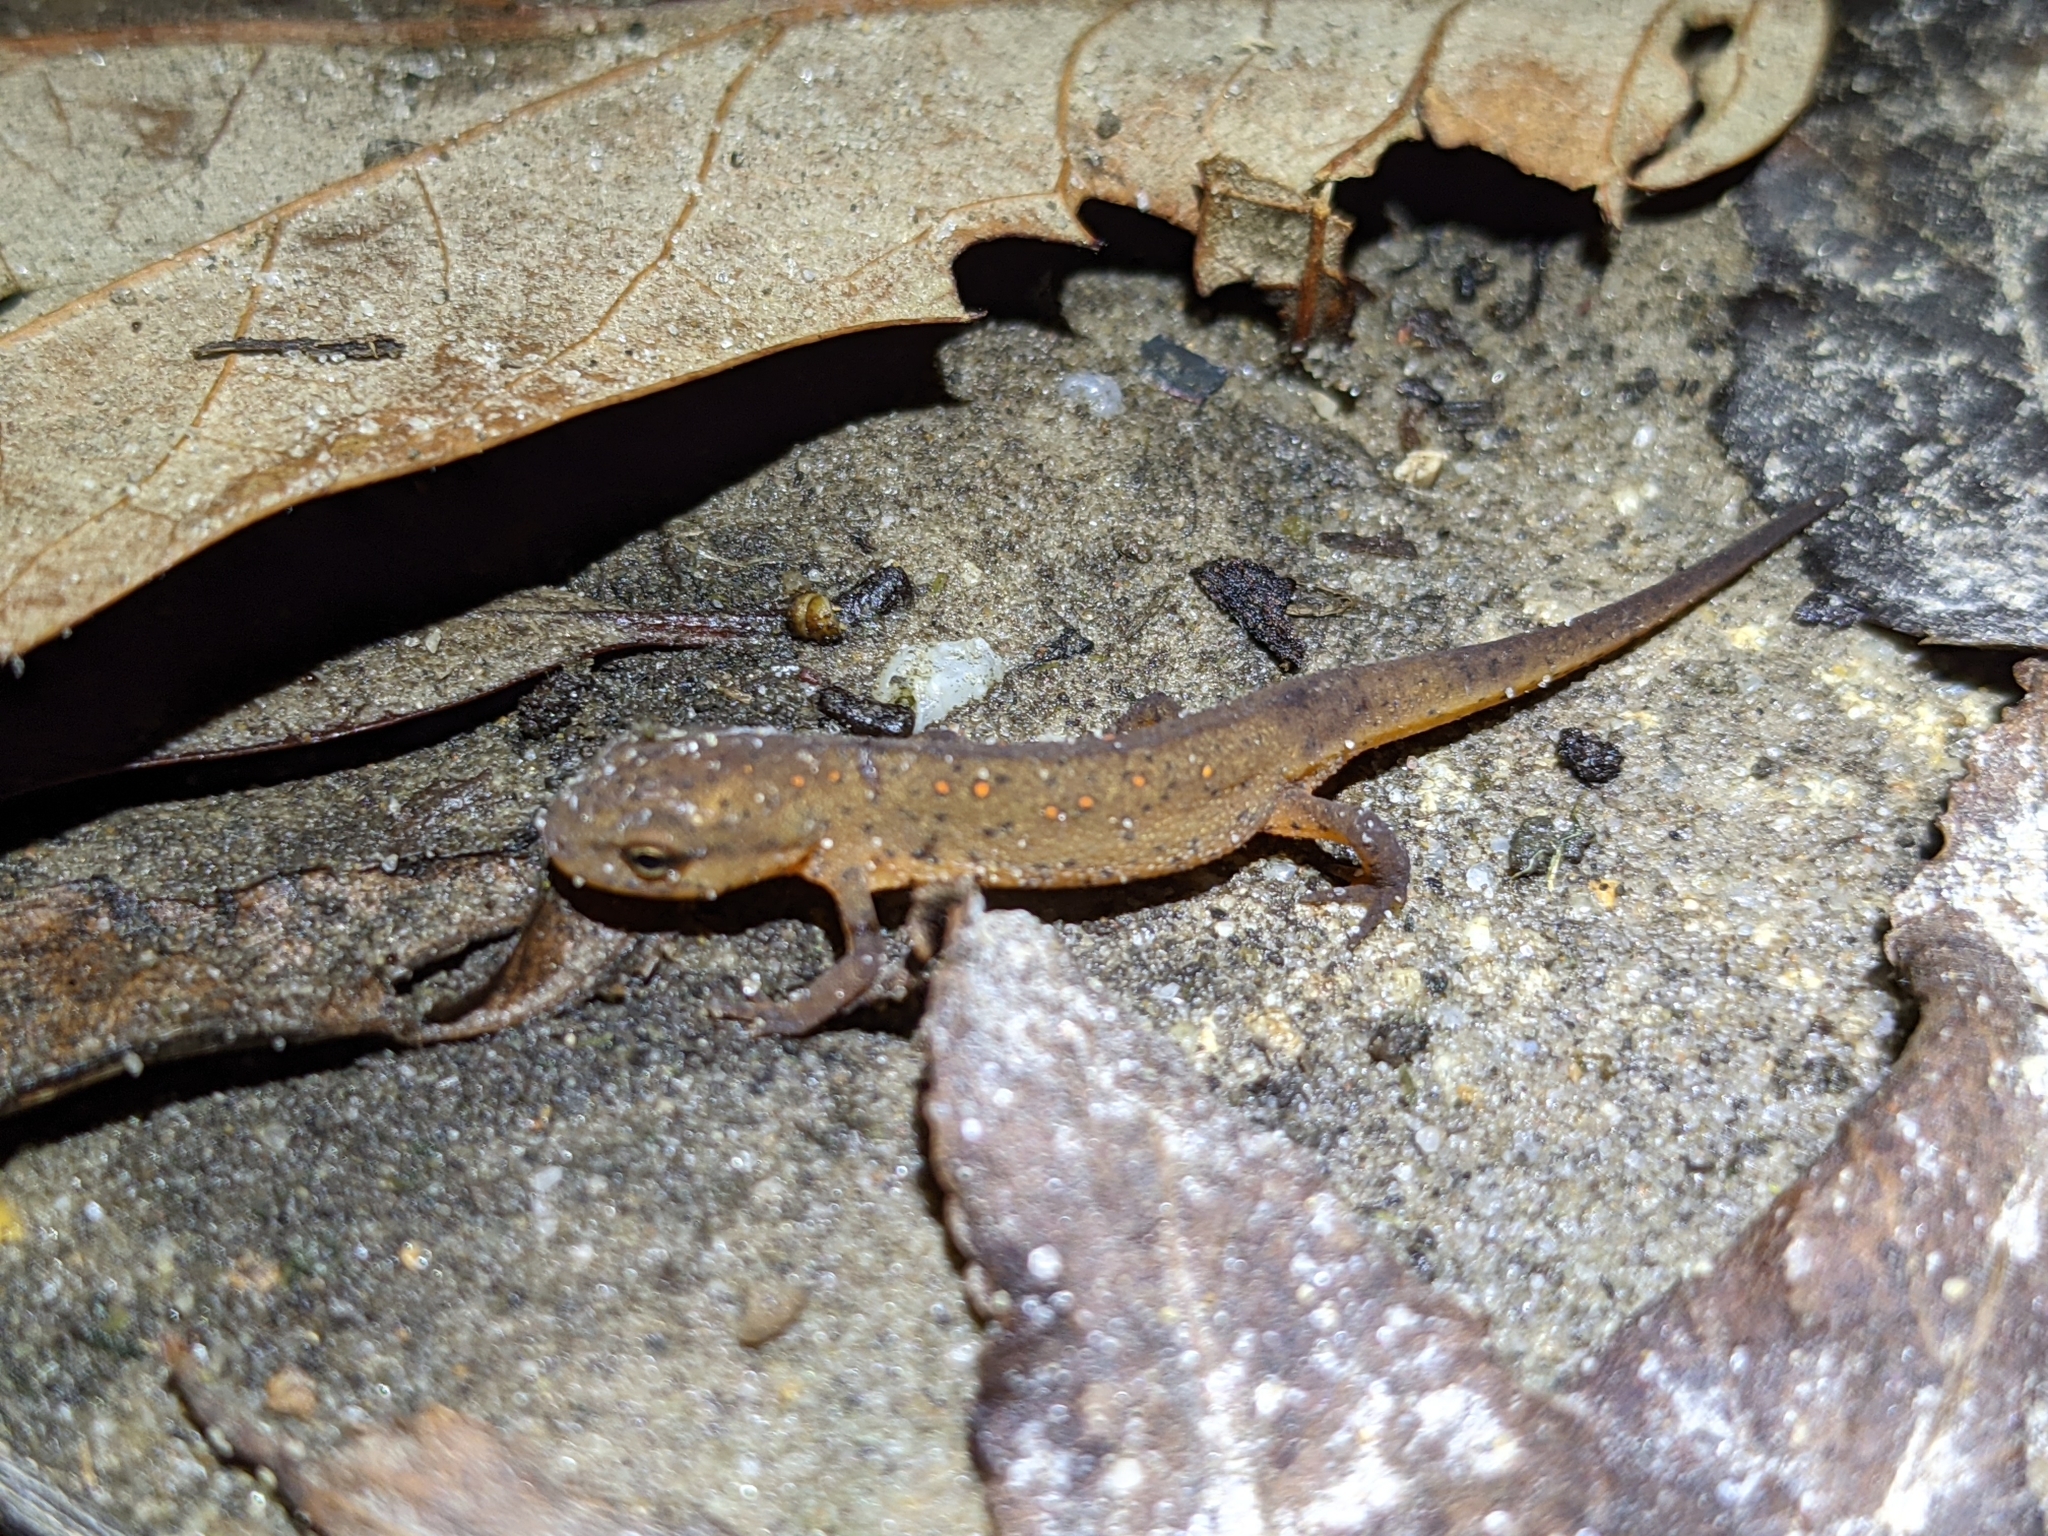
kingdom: Animalia
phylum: Chordata
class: Amphibia
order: Caudata
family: Salamandridae
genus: Notophthalmus
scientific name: Notophthalmus viridescens
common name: Eastern newt
